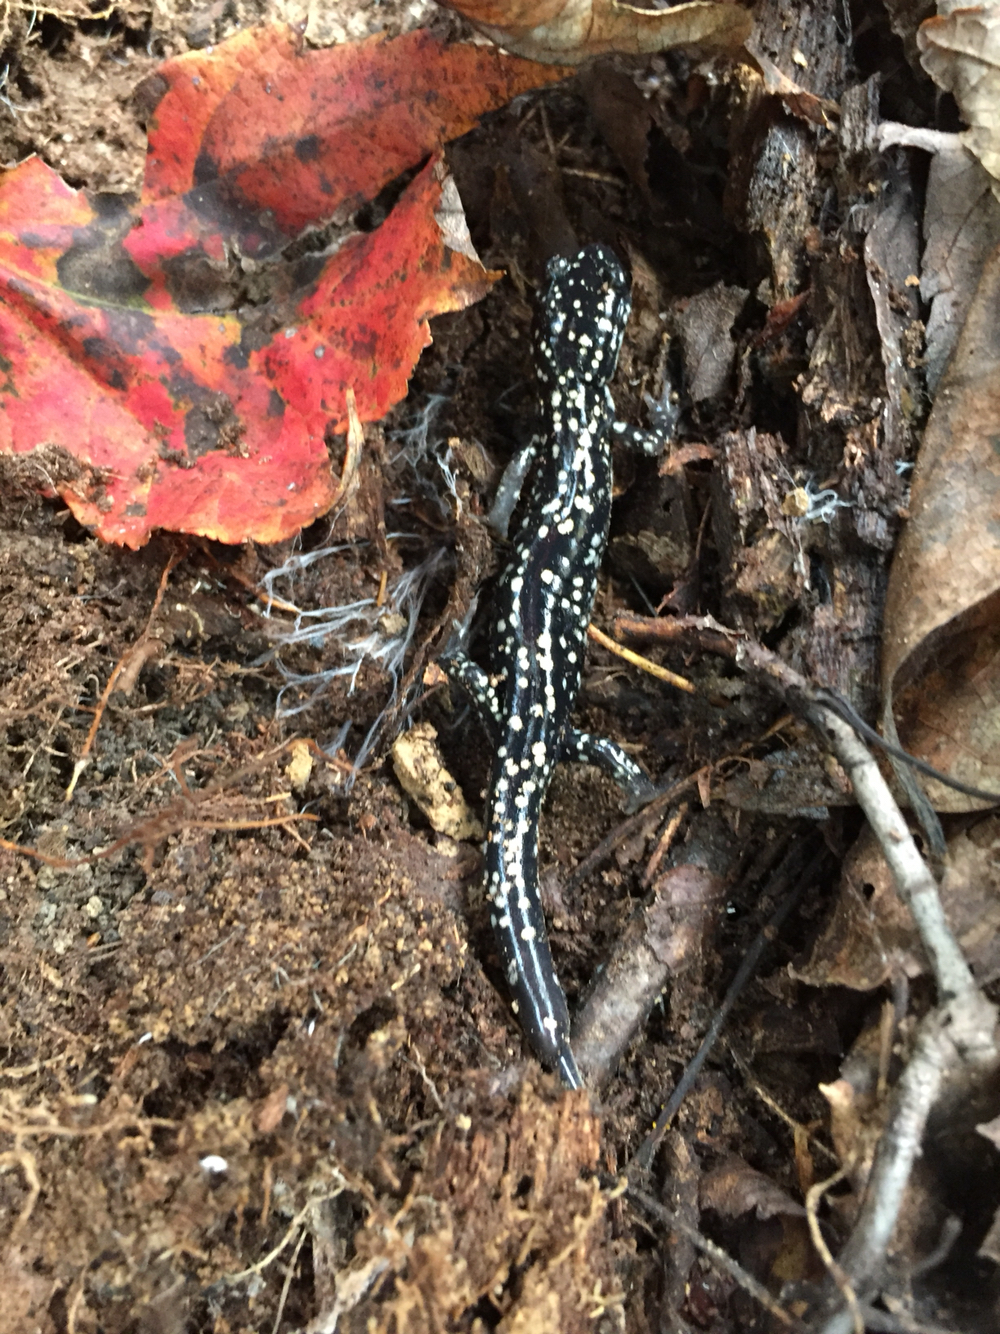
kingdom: Animalia
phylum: Chordata
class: Amphibia
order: Caudata
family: Plethodontidae
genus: Plethodon
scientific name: Plethodon glutinosus
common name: Northern slimy salamander
